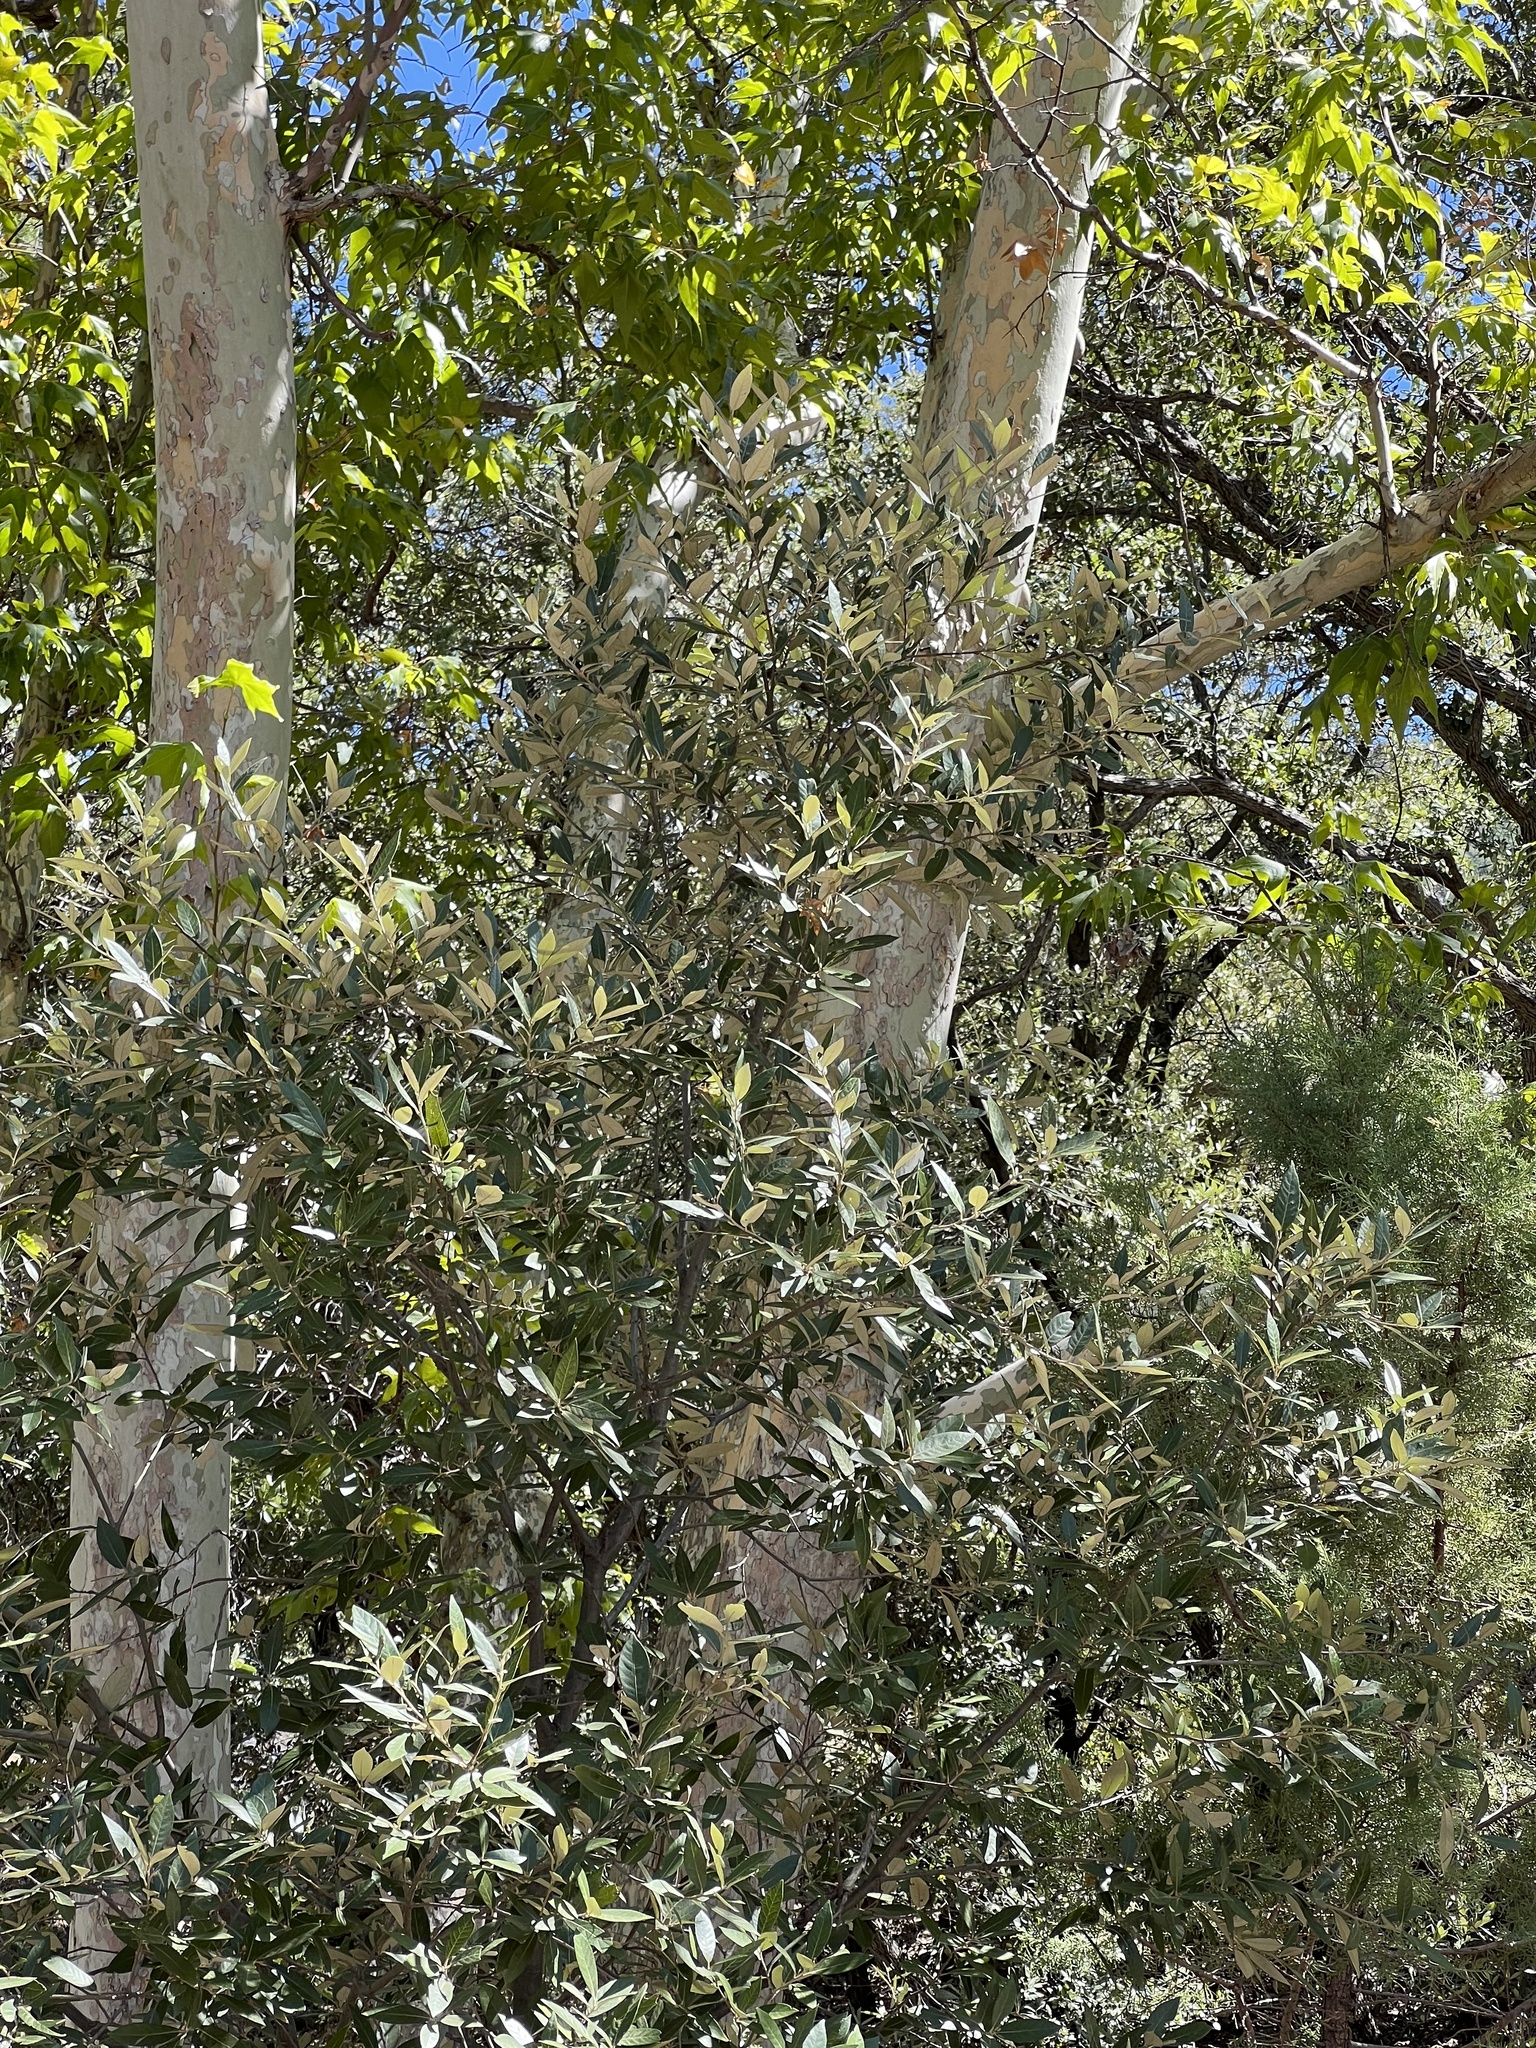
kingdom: Plantae
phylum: Tracheophyta
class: Magnoliopsida
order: Fagales
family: Fagaceae
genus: Quercus
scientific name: Quercus hypoleucoides
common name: Silverleaf oak
